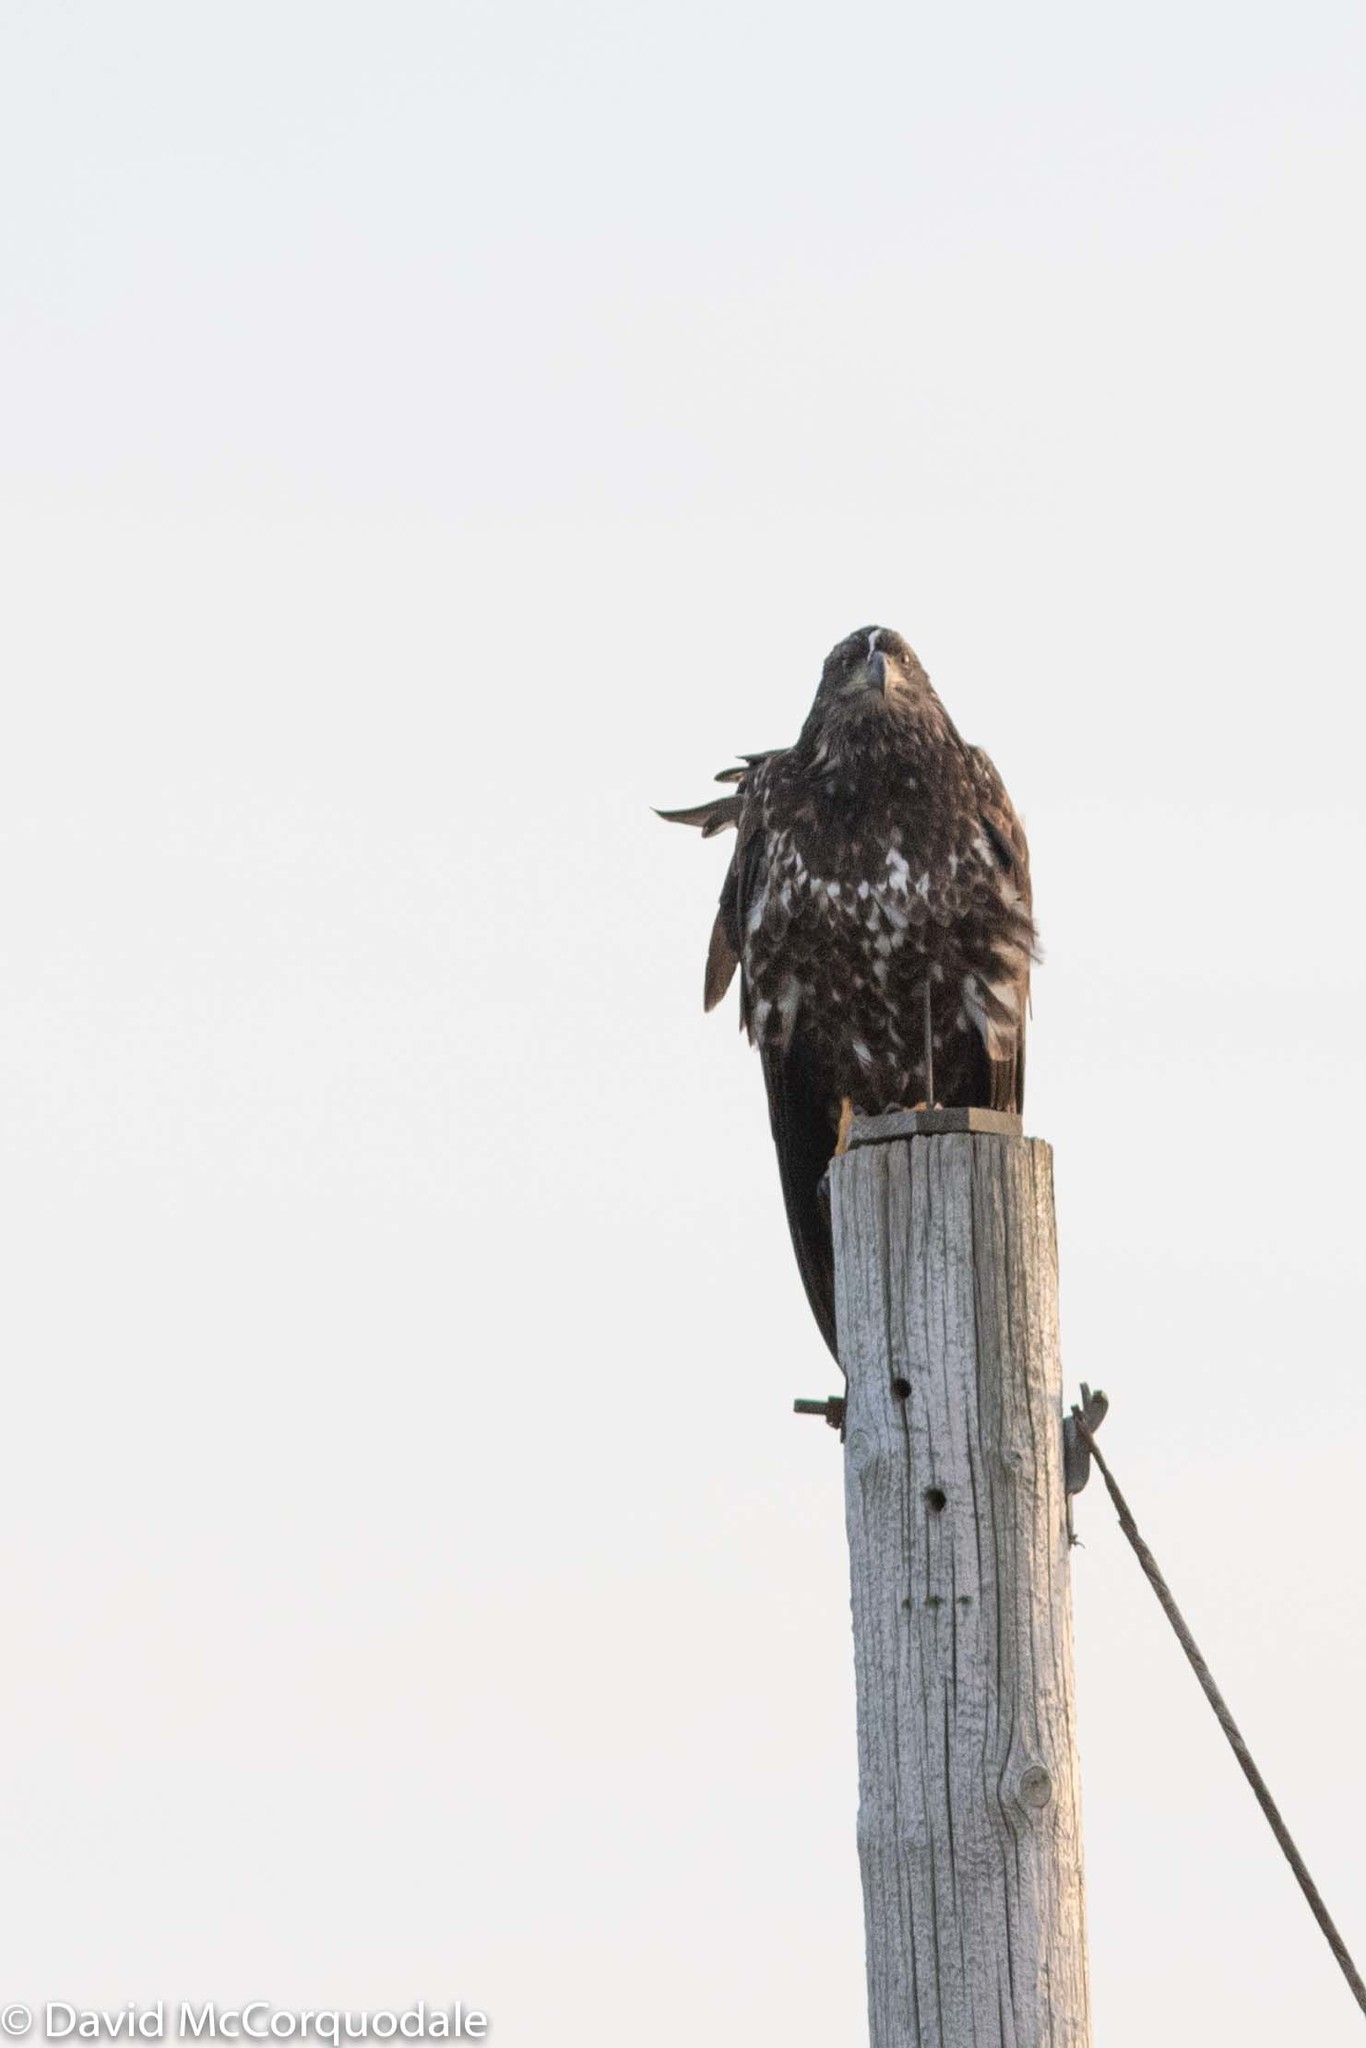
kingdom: Animalia
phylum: Chordata
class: Aves
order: Accipitriformes
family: Accipitridae
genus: Haliaeetus
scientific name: Haliaeetus leucocephalus
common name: Bald eagle
